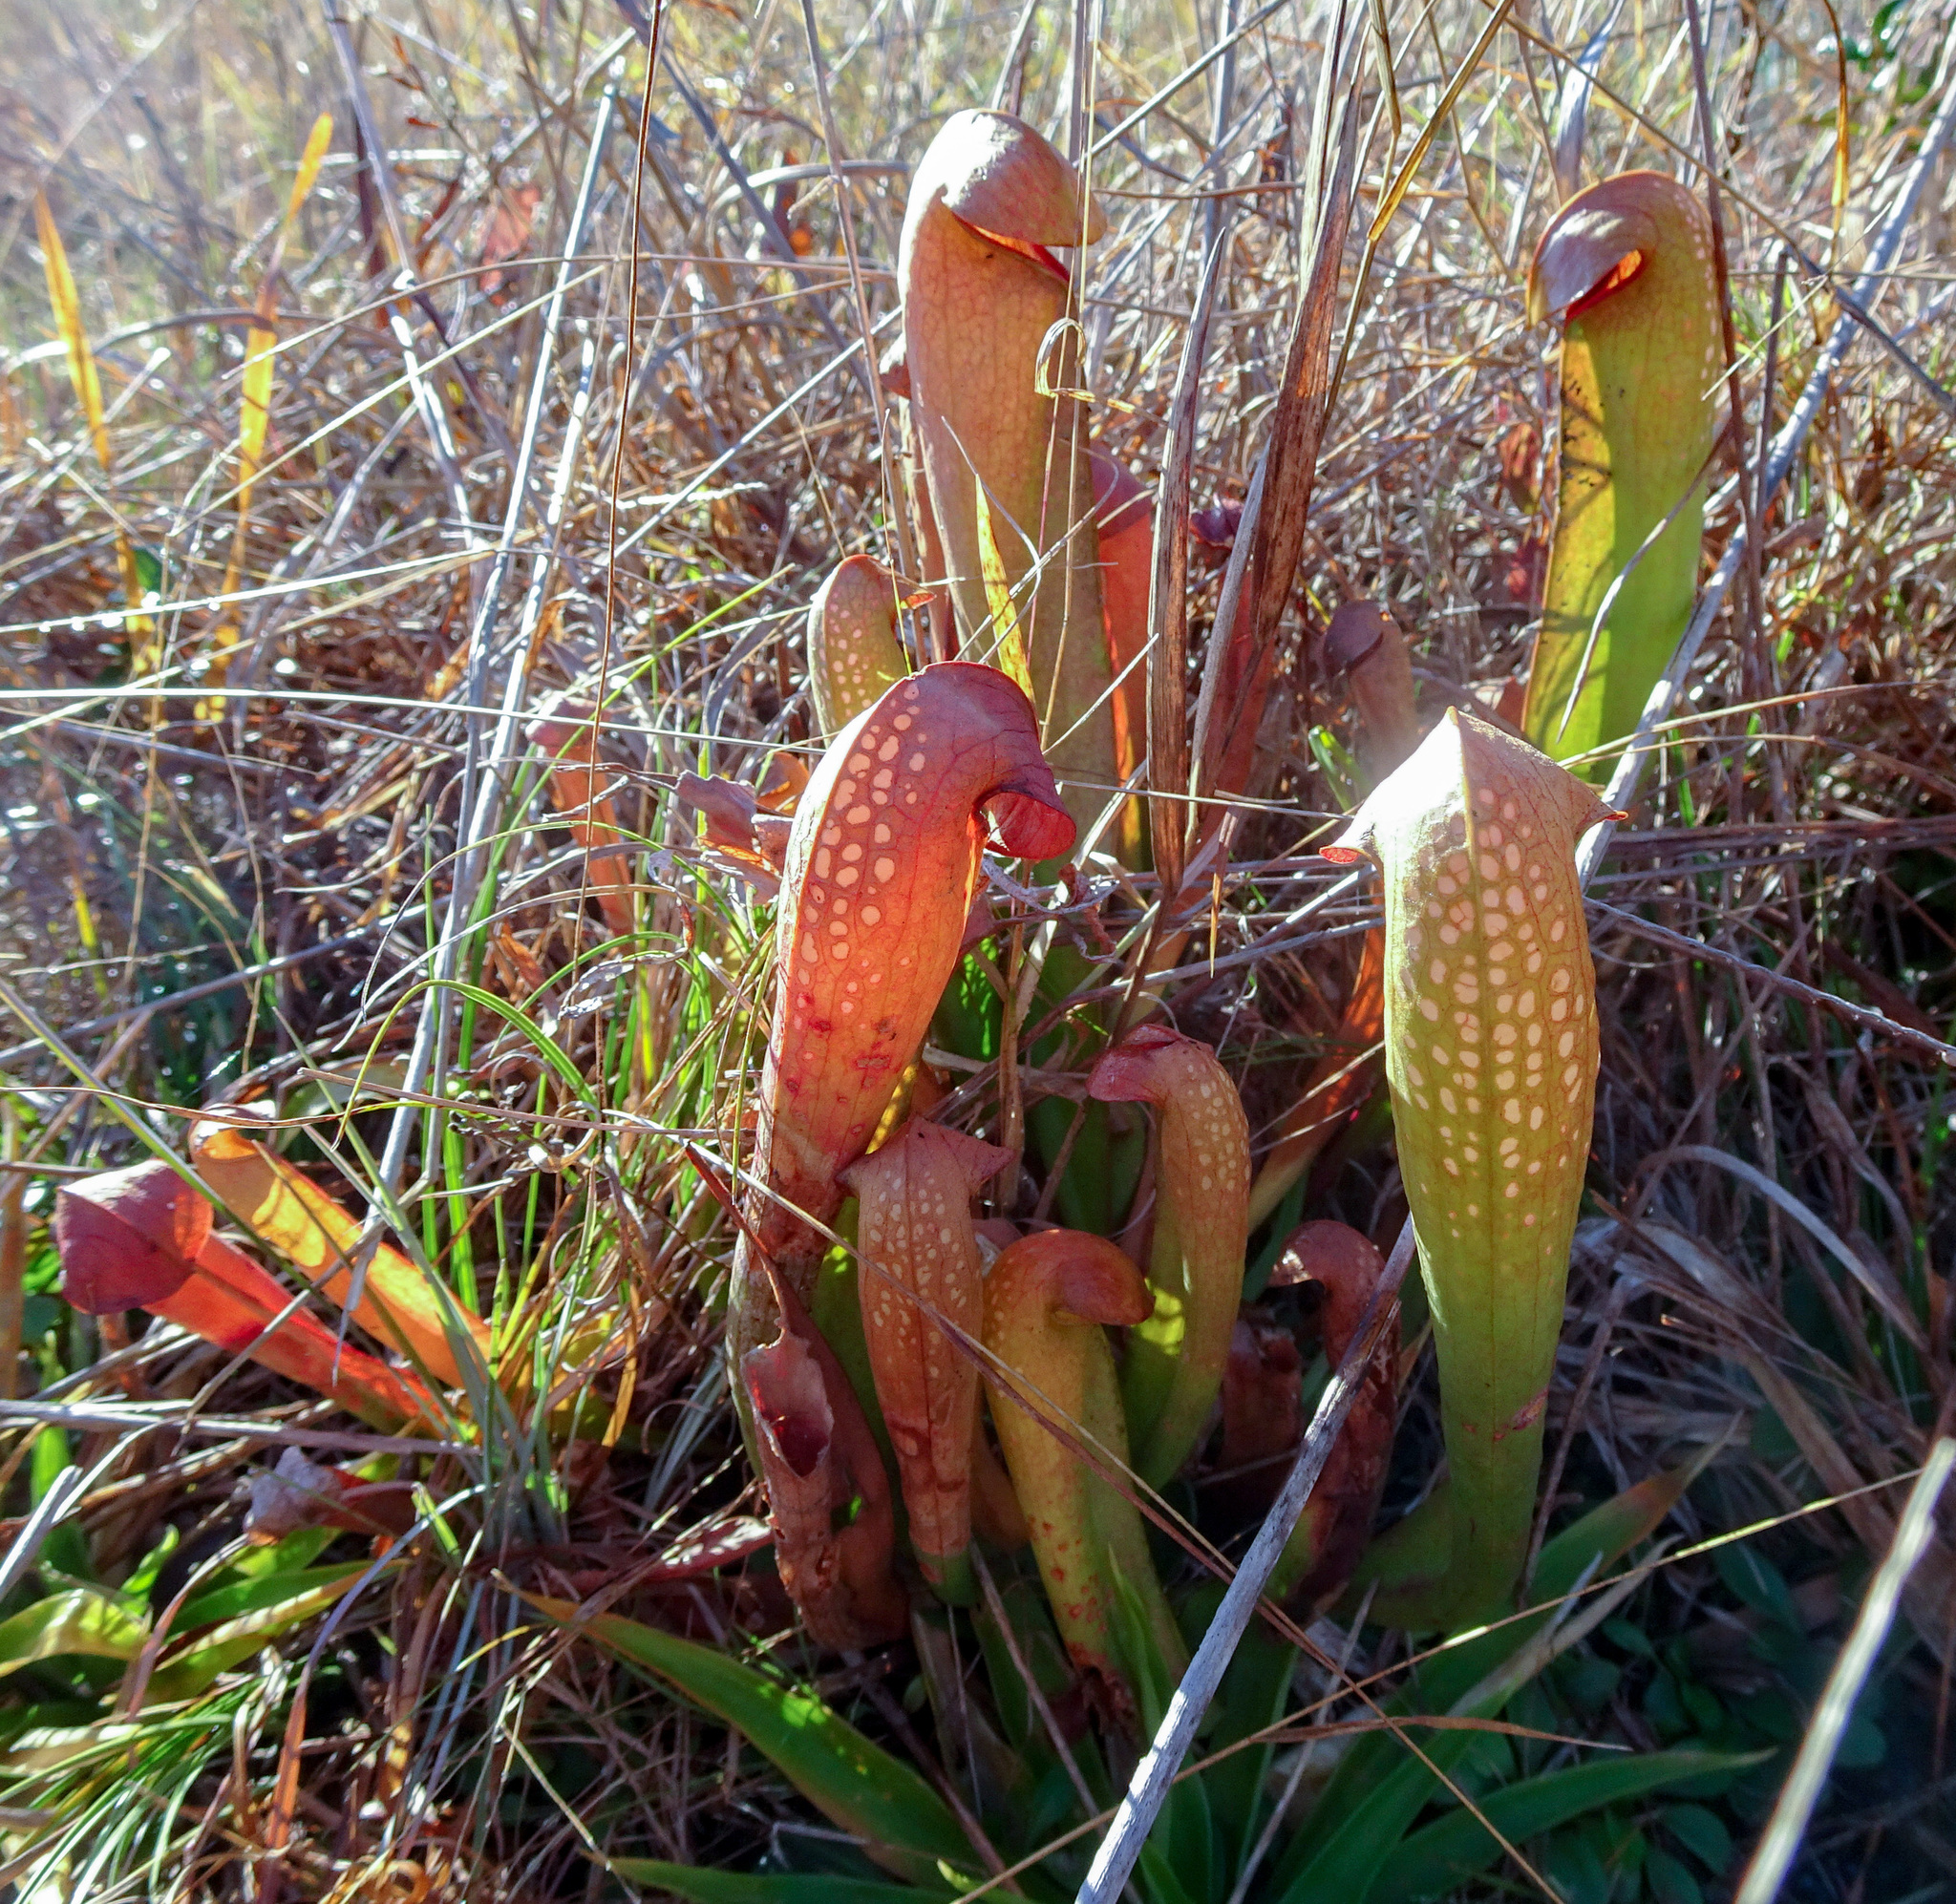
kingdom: Plantae
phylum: Tracheophyta
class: Magnoliopsida
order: Ericales
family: Sarraceniaceae
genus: Sarracenia
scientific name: Sarracenia minor
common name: Rainhat-trumpet
